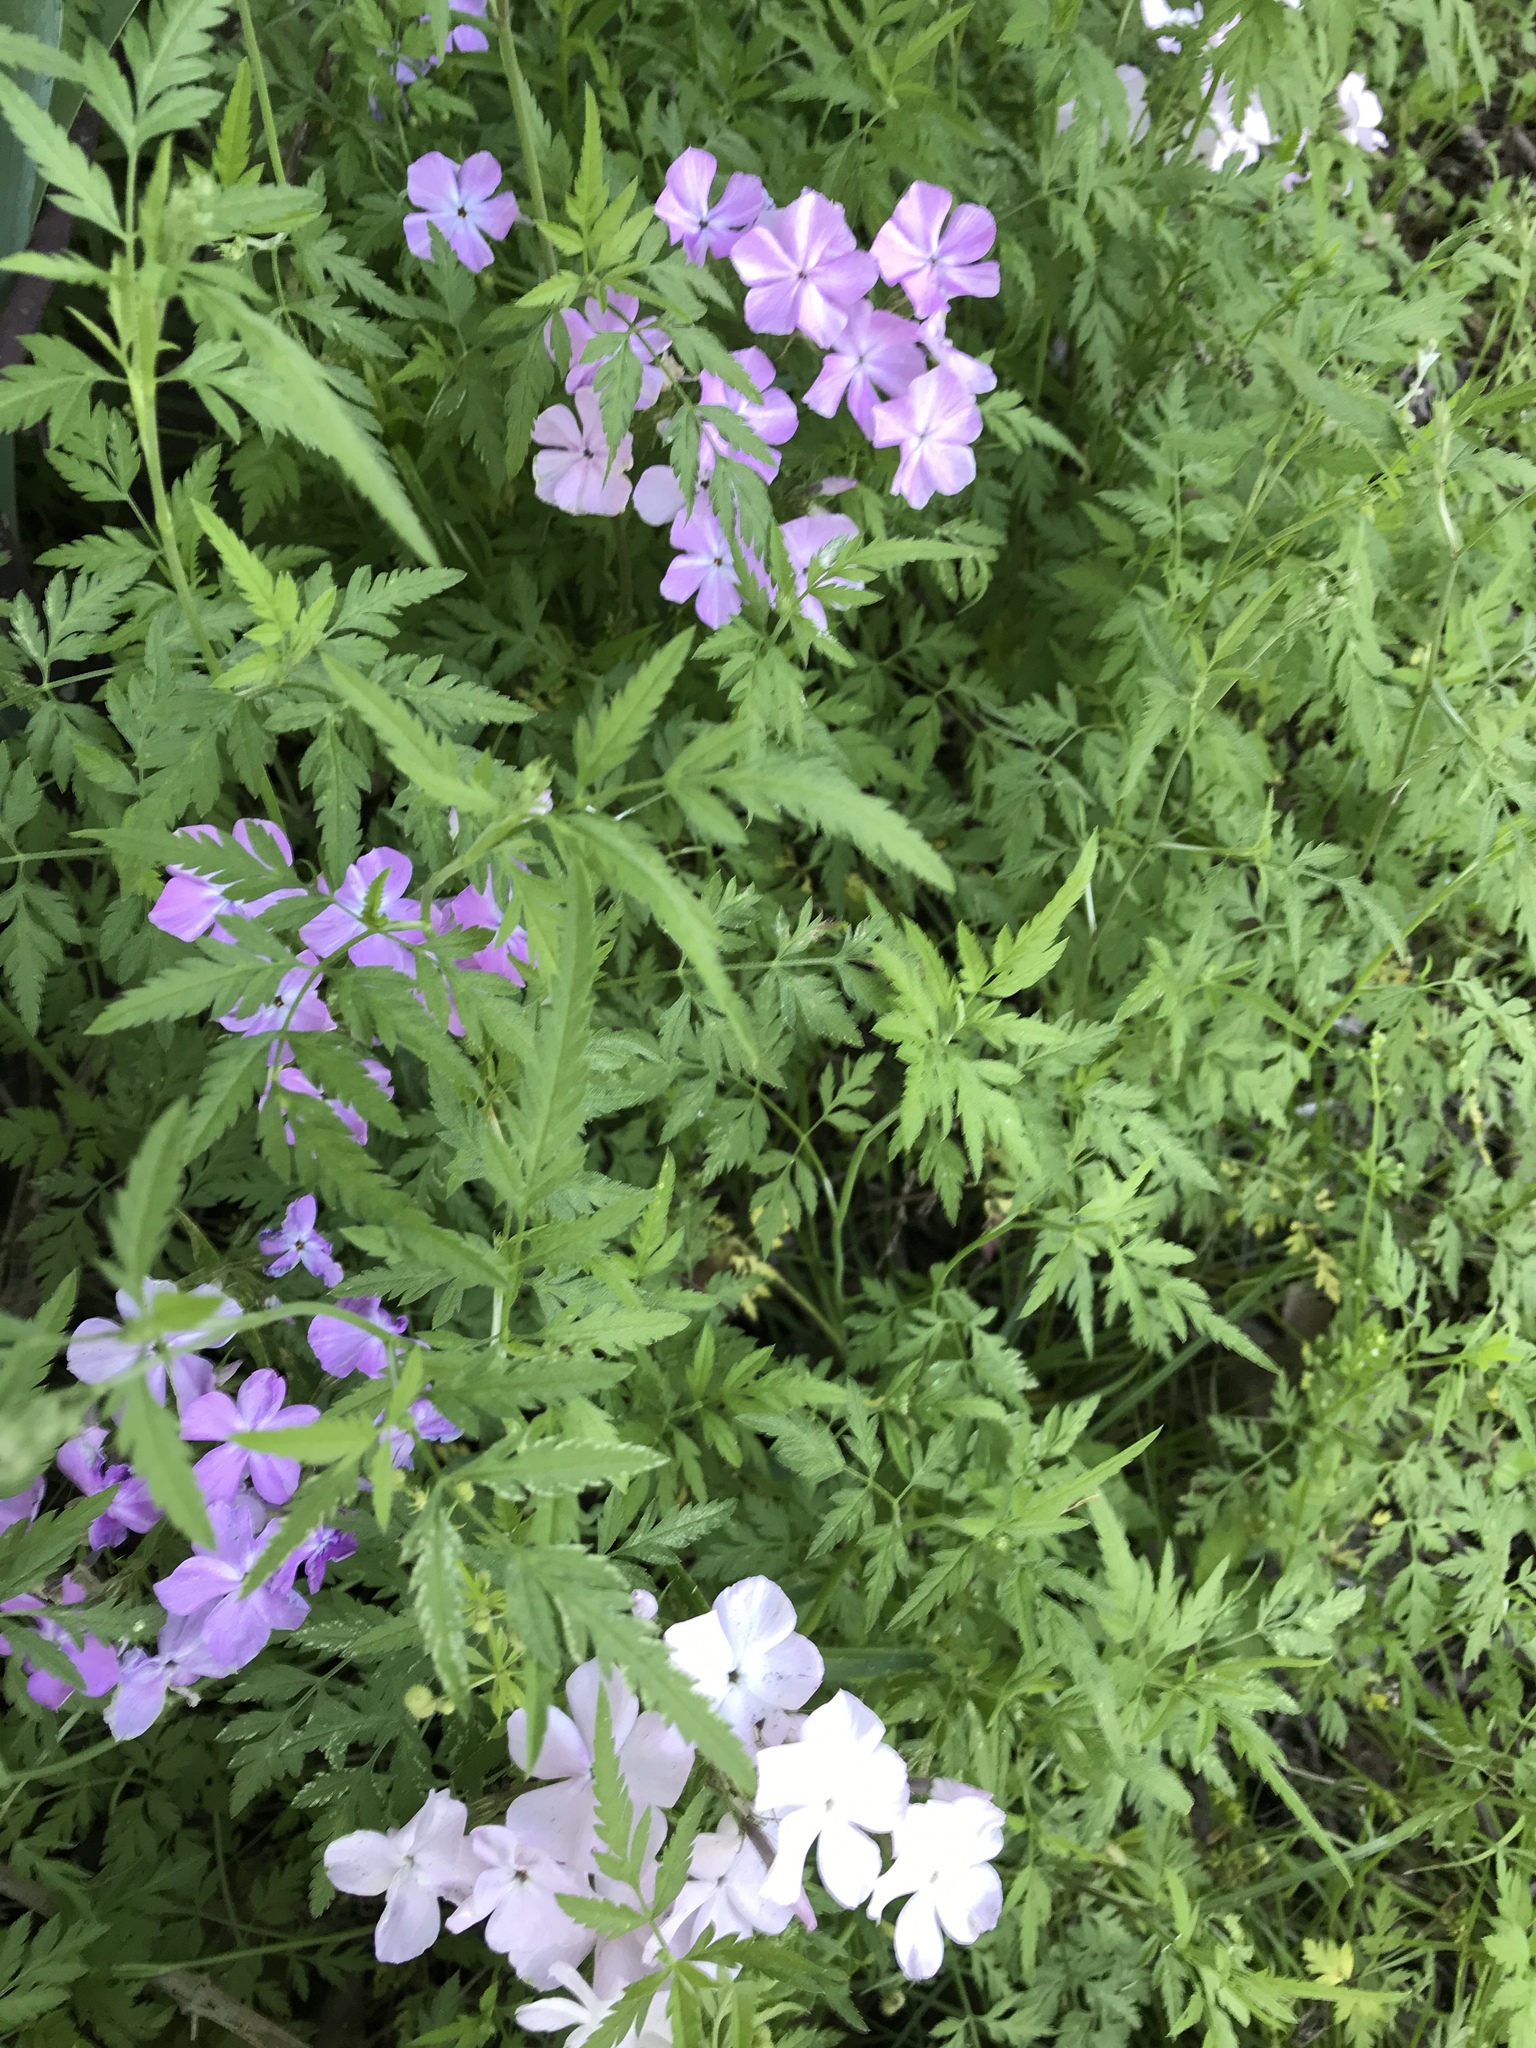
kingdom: Plantae
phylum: Tracheophyta
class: Magnoliopsida
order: Ericales
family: Polemoniaceae
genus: Phlox
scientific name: Phlox pilosa
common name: Prairie phlox
